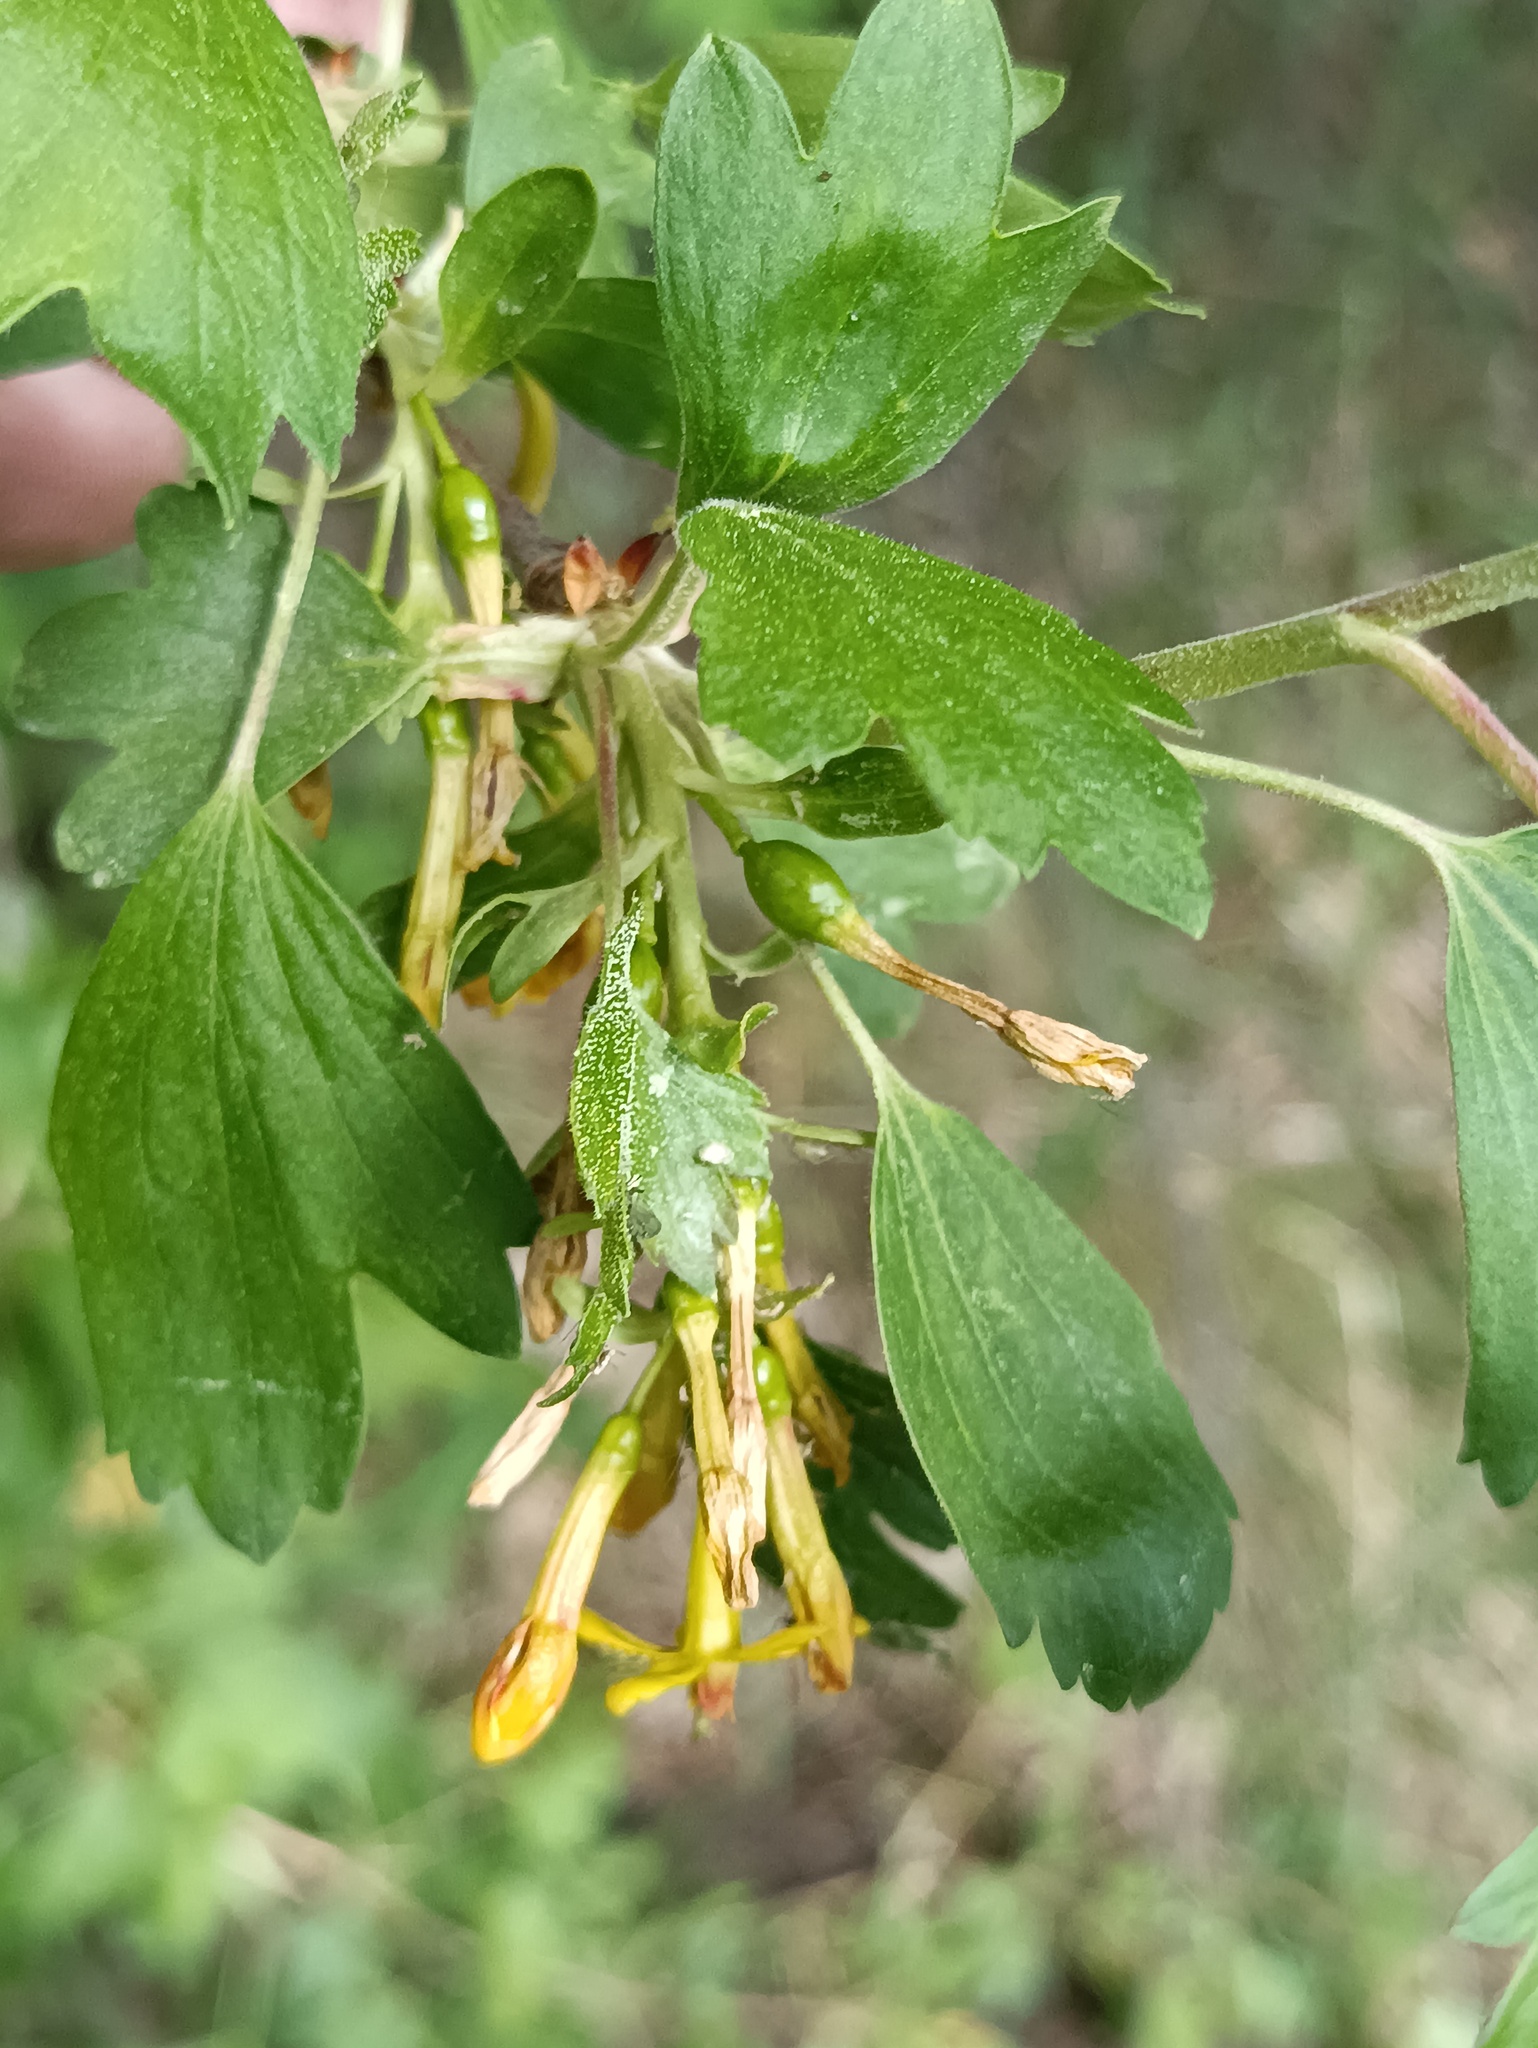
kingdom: Plantae
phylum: Tracheophyta
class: Magnoliopsida
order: Saxifragales
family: Grossulariaceae
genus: Ribes
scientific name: Ribes aureum
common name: Golden currant
